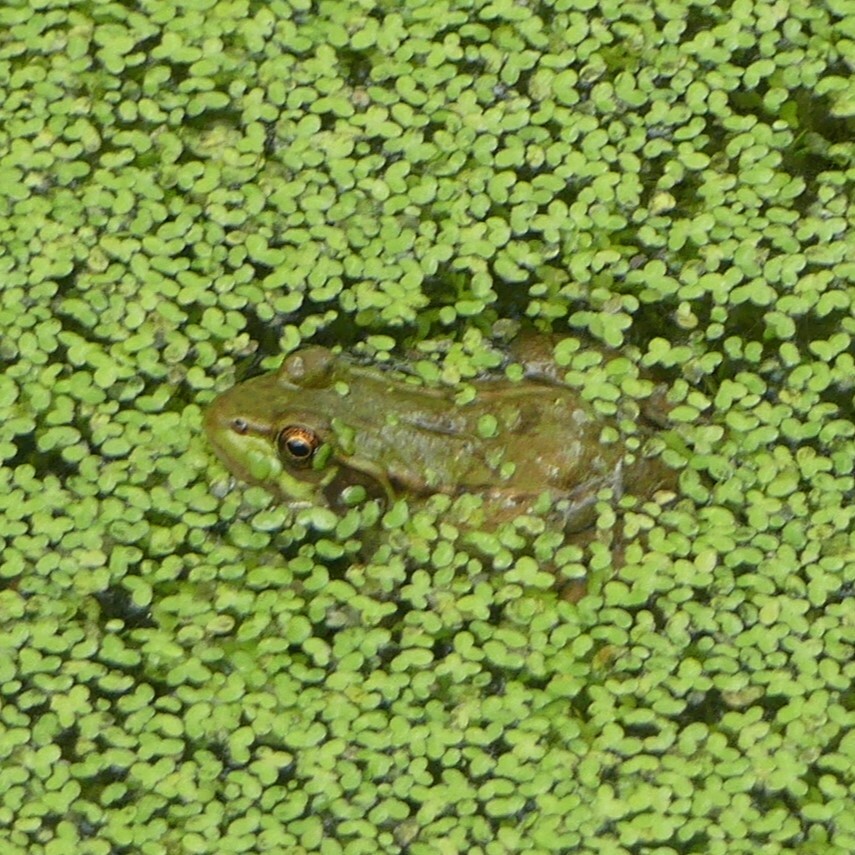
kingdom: Animalia
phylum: Chordata
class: Amphibia
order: Anura
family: Ranidae
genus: Lithobates
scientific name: Lithobates clamitans
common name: Green frog
